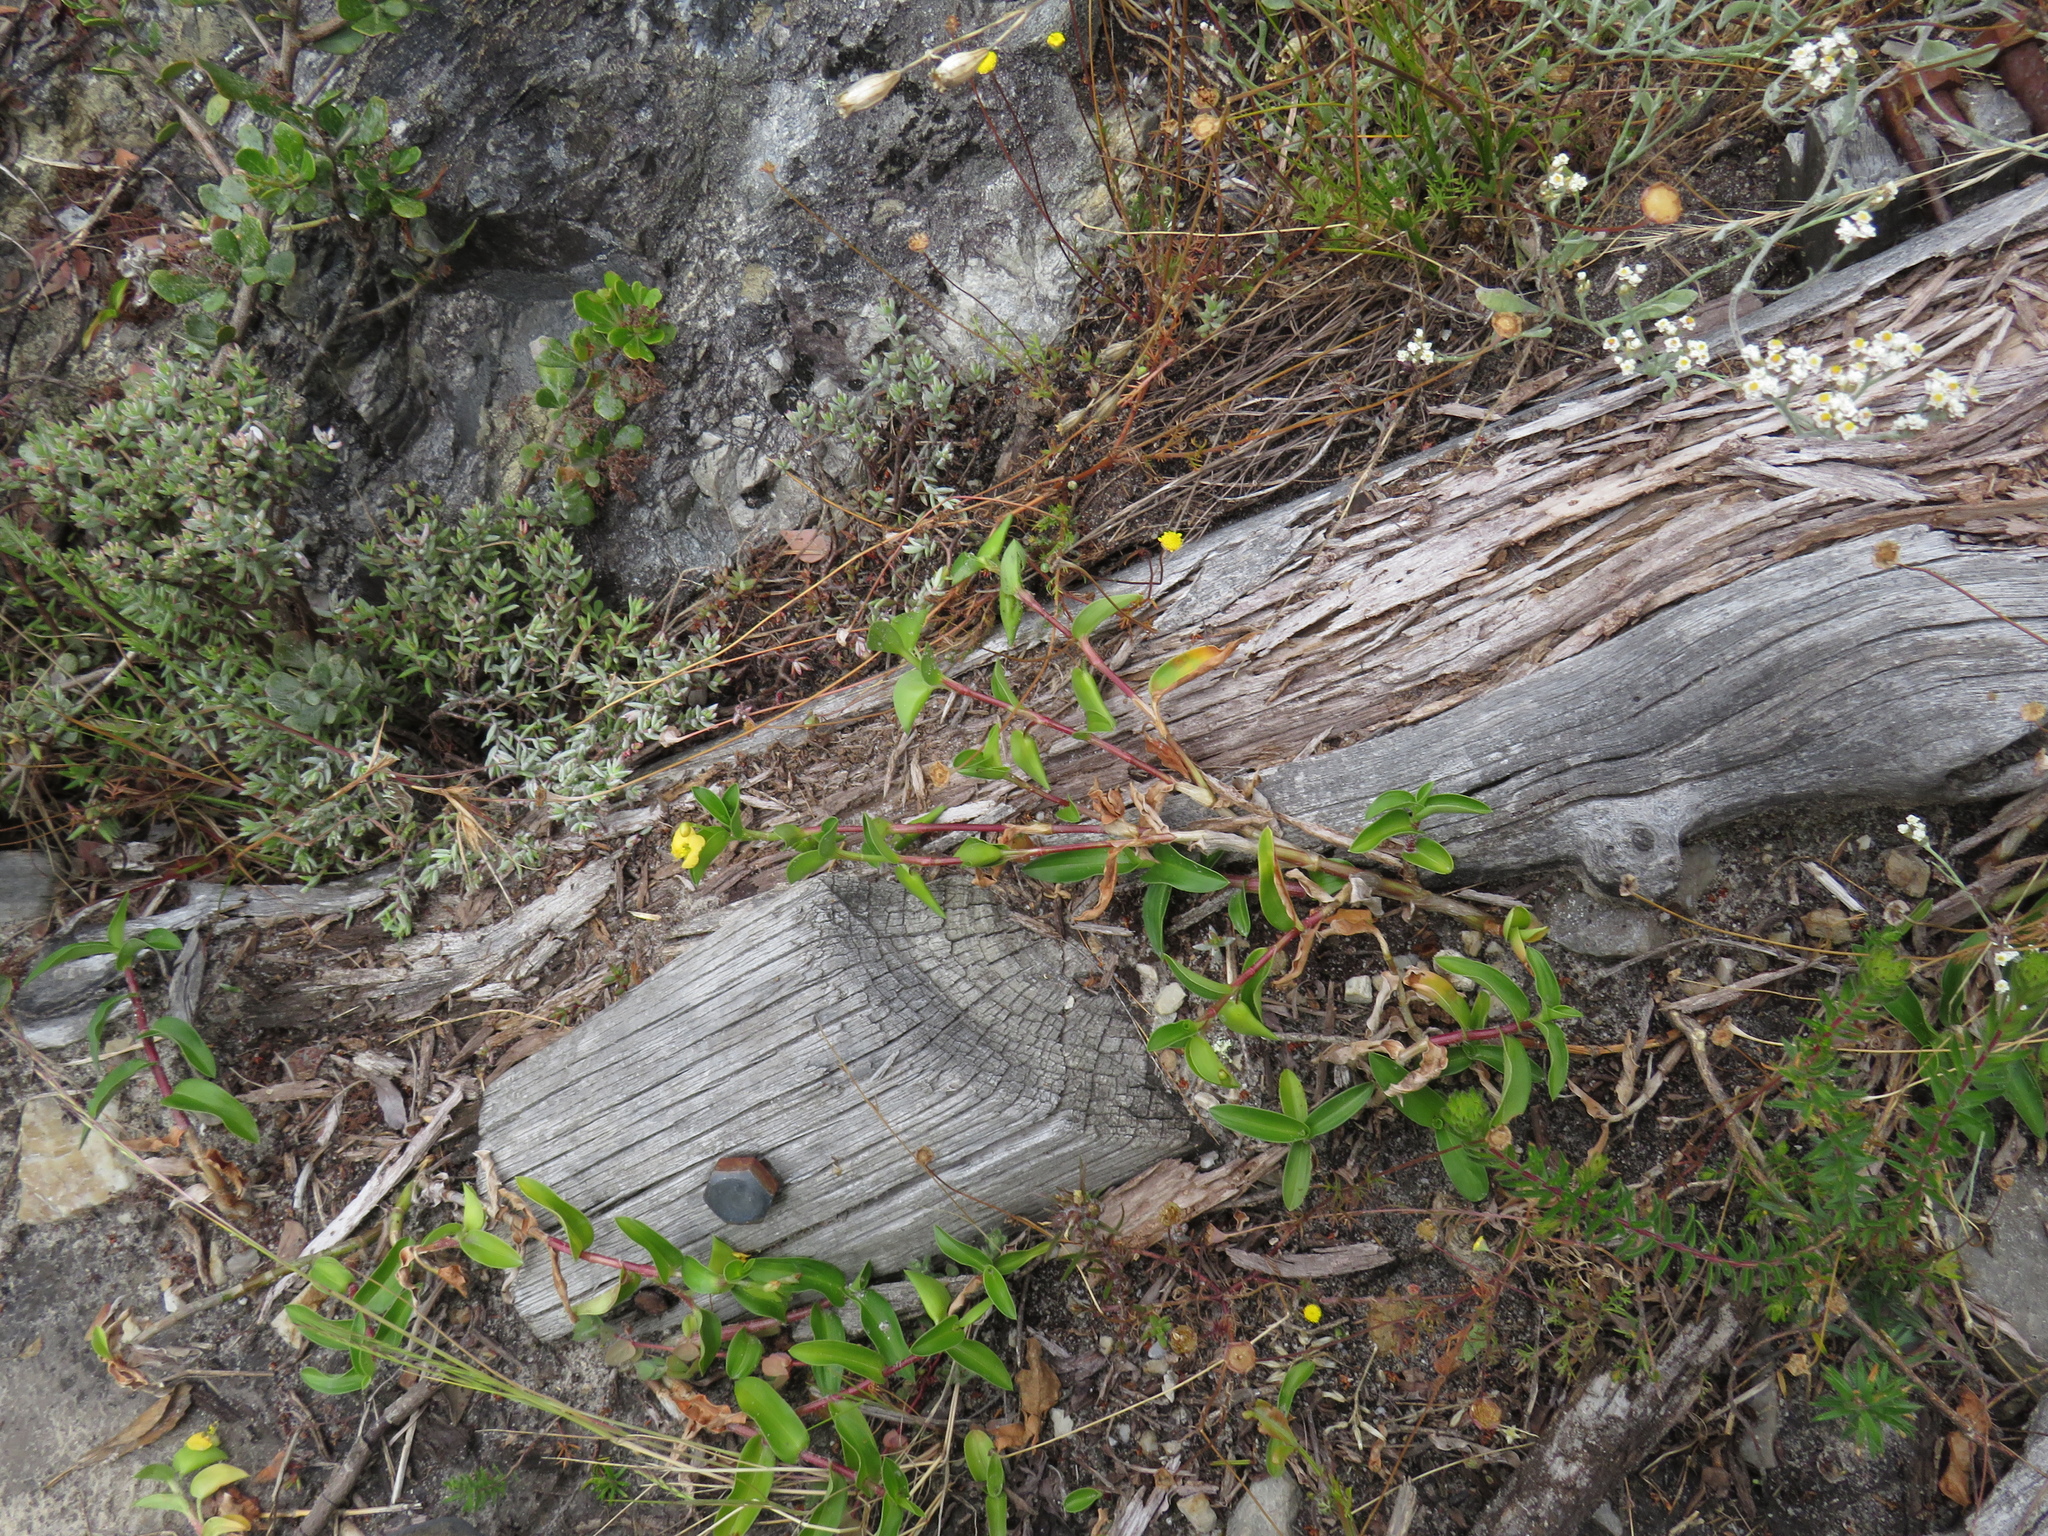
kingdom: Plantae
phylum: Tracheophyta
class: Liliopsida
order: Commelinales
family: Commelinaceae
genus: Commelina
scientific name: Commelina africana
